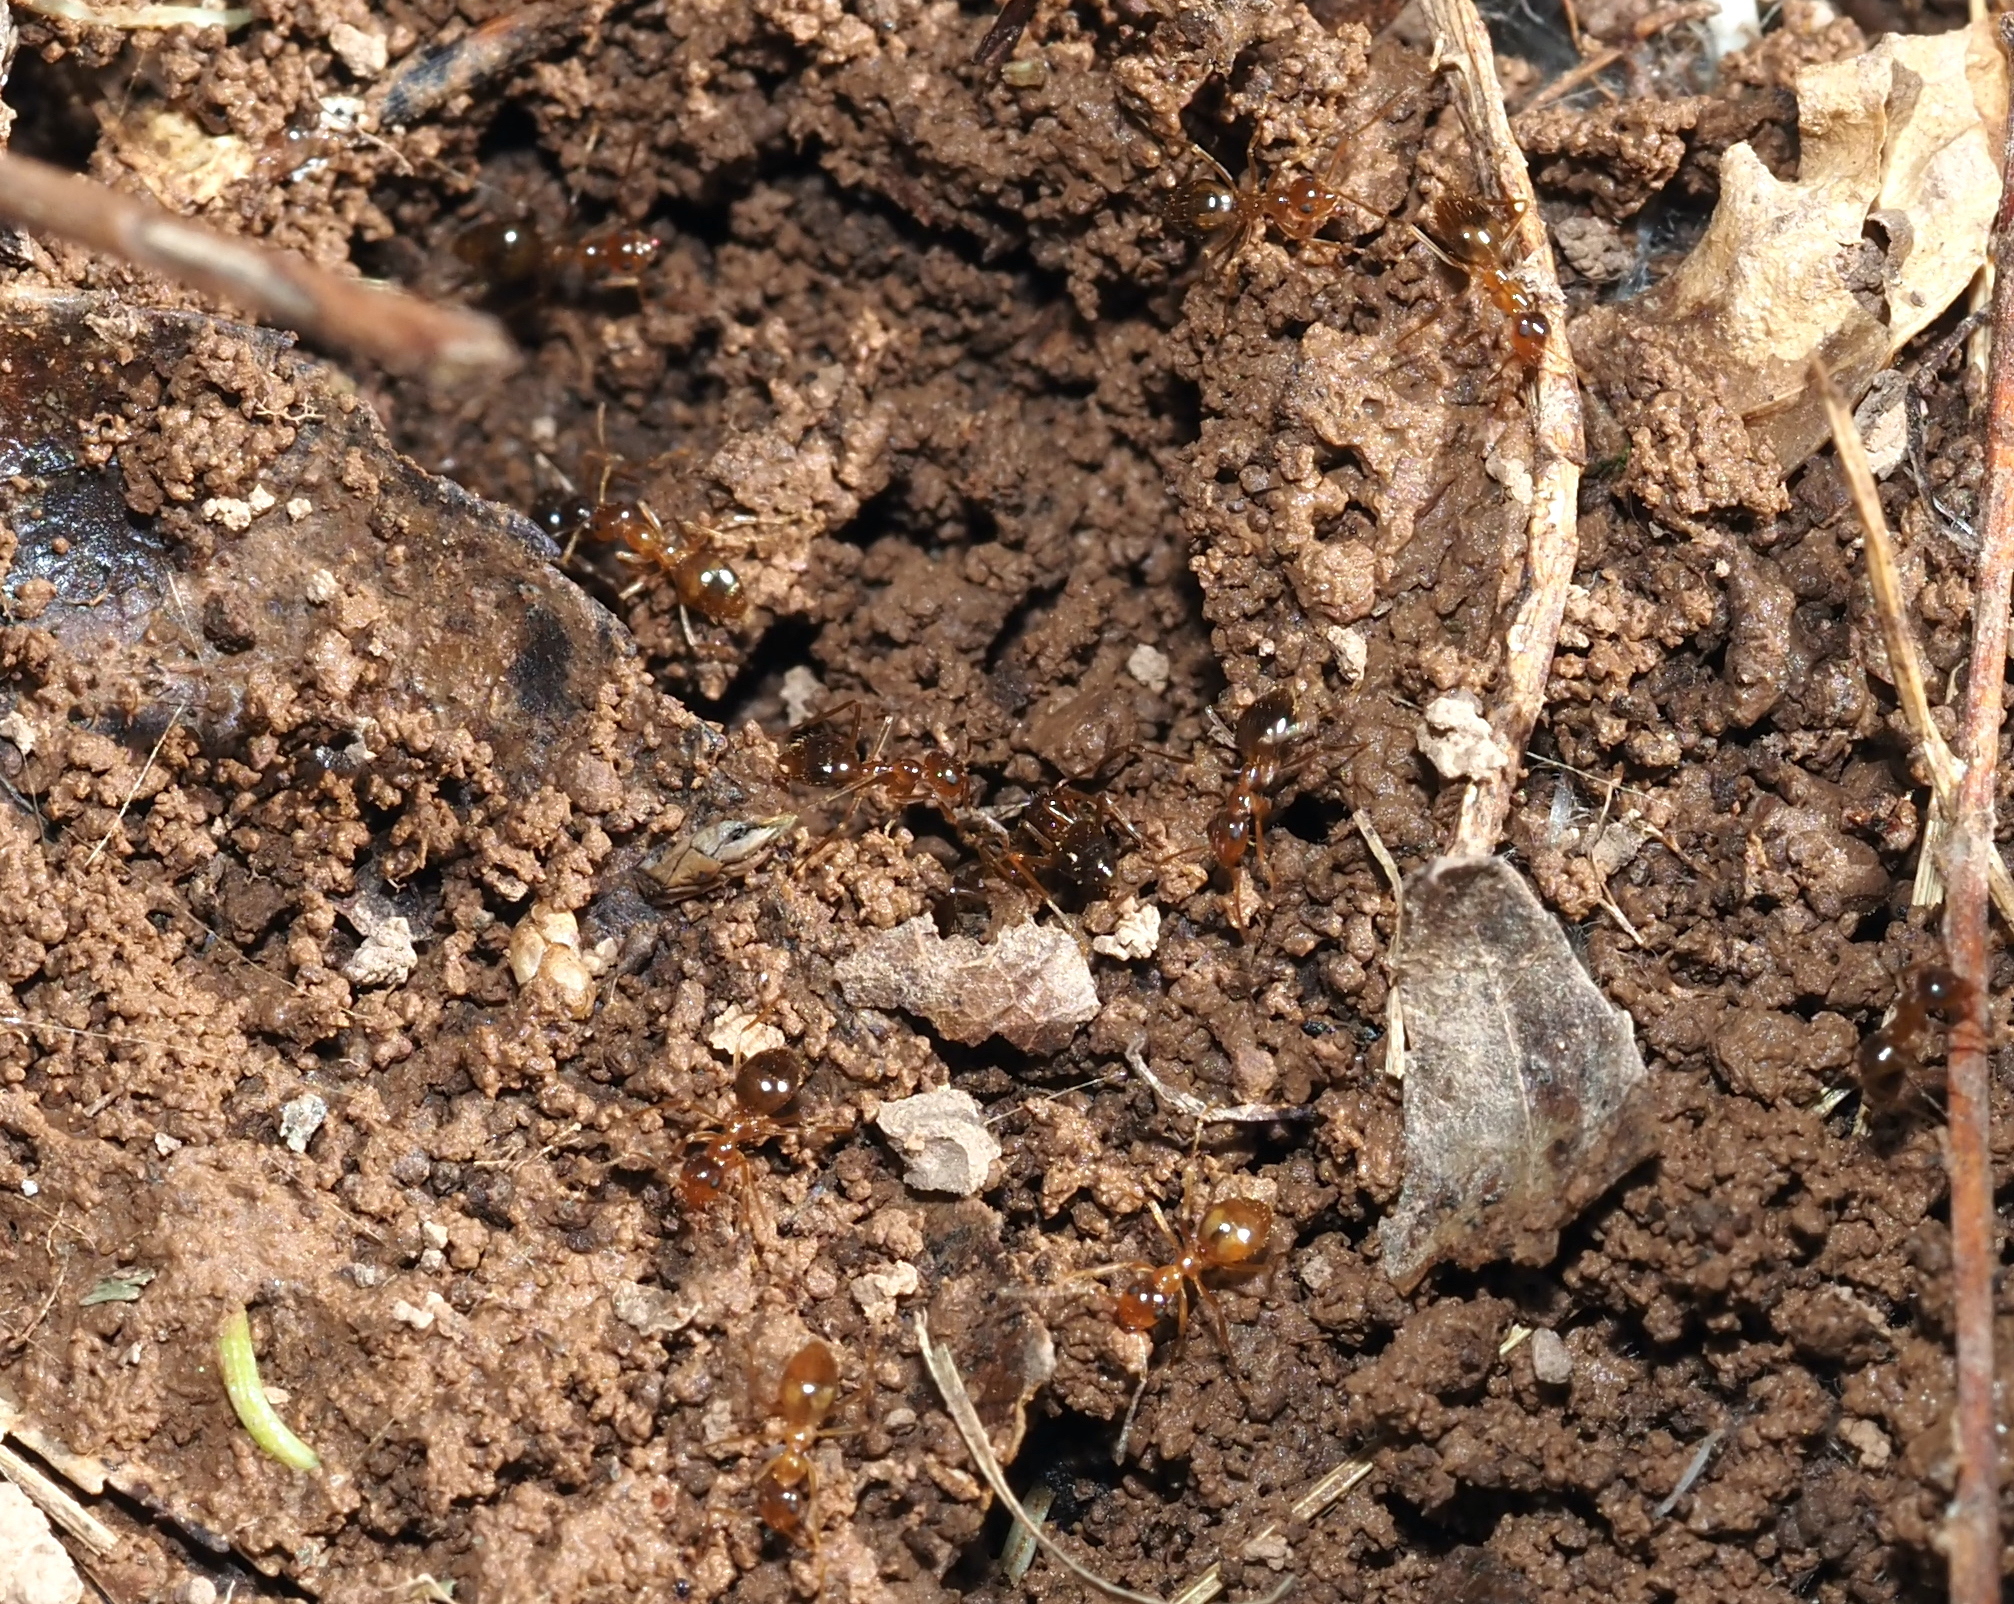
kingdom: Animalia
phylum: Arthropoda
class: Insecta
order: Hymenoptera
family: Formicidae
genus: Prenolepis
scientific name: Prenolepis imparis
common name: Small honey ant
